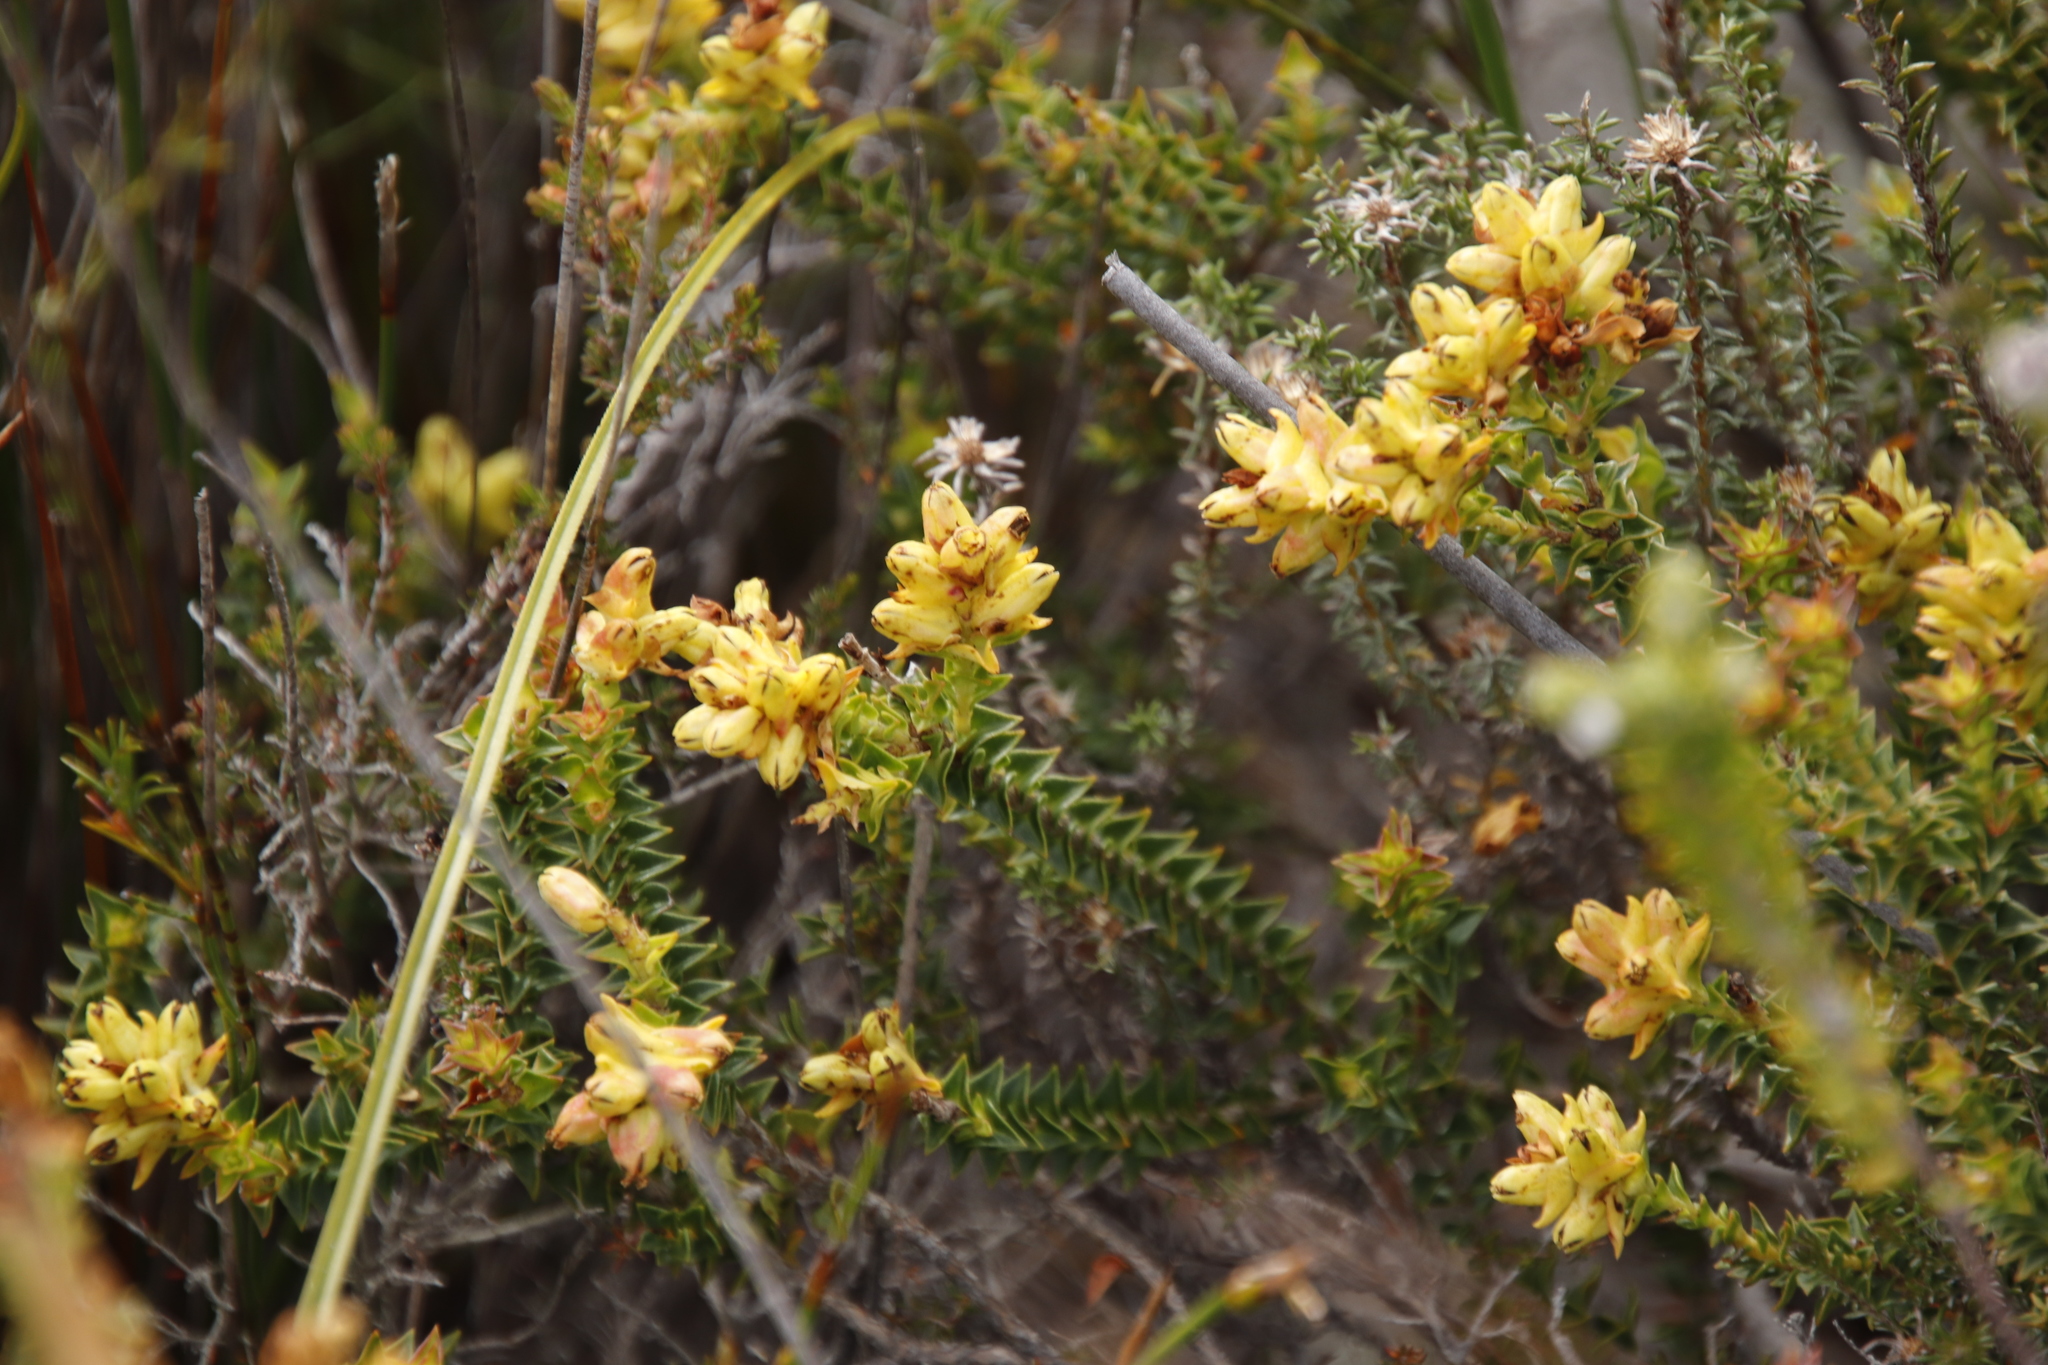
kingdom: Plantae
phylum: Tracheophyta
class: Magnoliopsida
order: Myrtales
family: Penaeaceae
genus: Penaea
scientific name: Penaea mucronata
